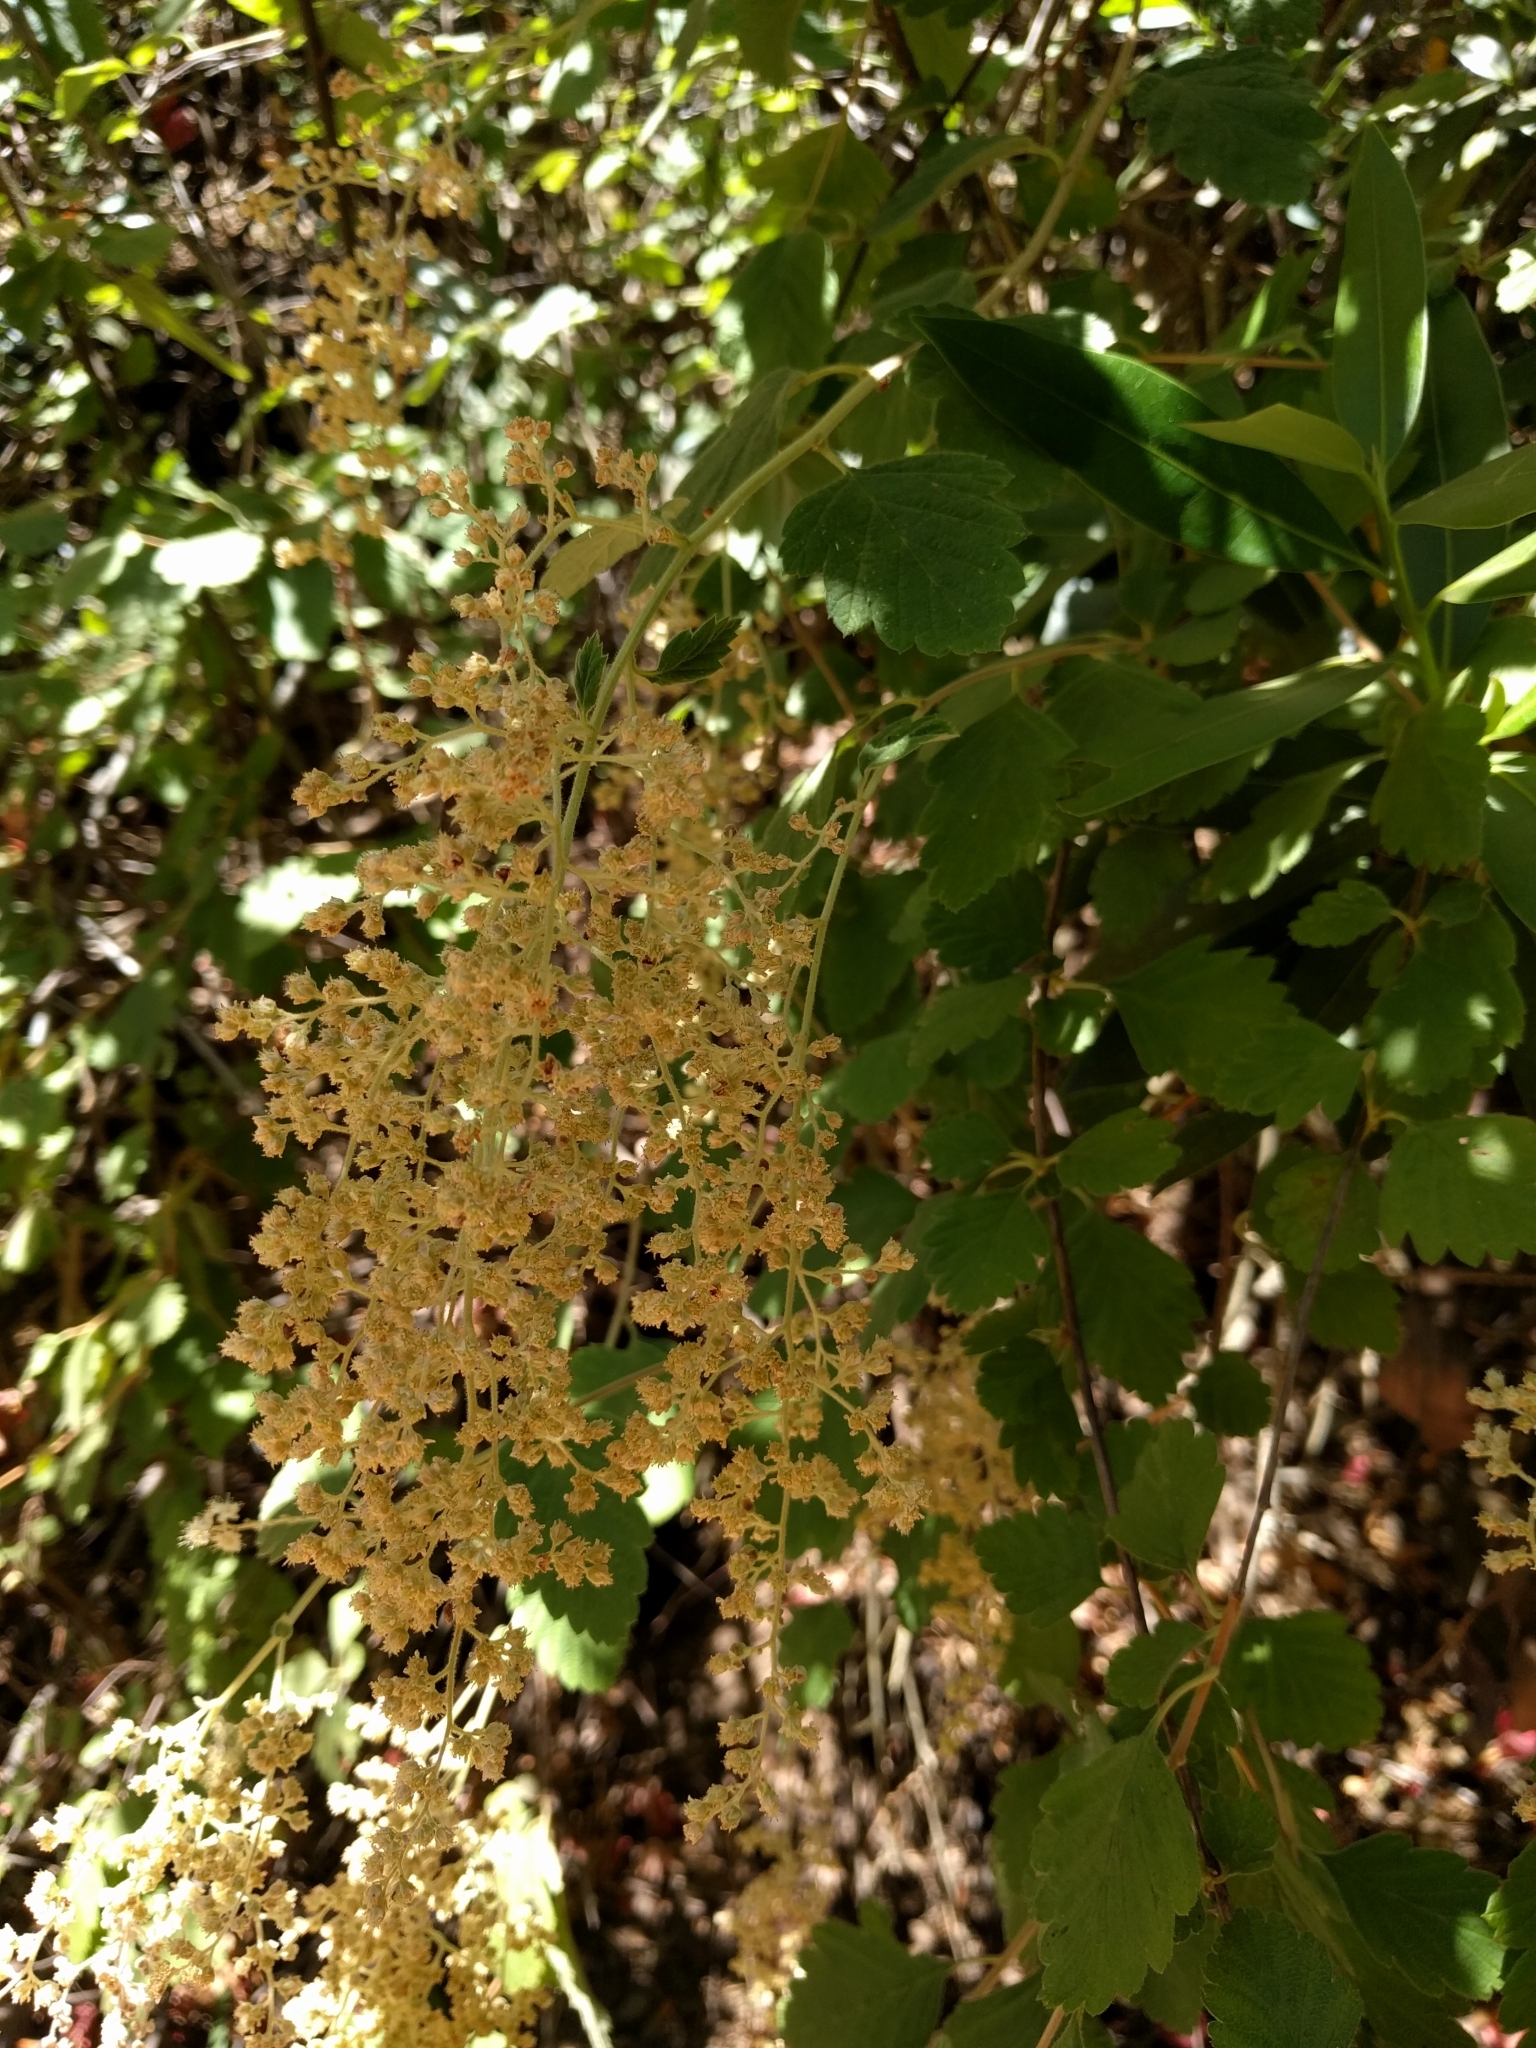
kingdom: Plantae
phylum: Tracheophyta
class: Magnoliopsida
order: Rosales
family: Rosaceae
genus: Holodiscus
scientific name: Holodiscus discolor
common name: Oceanspray
